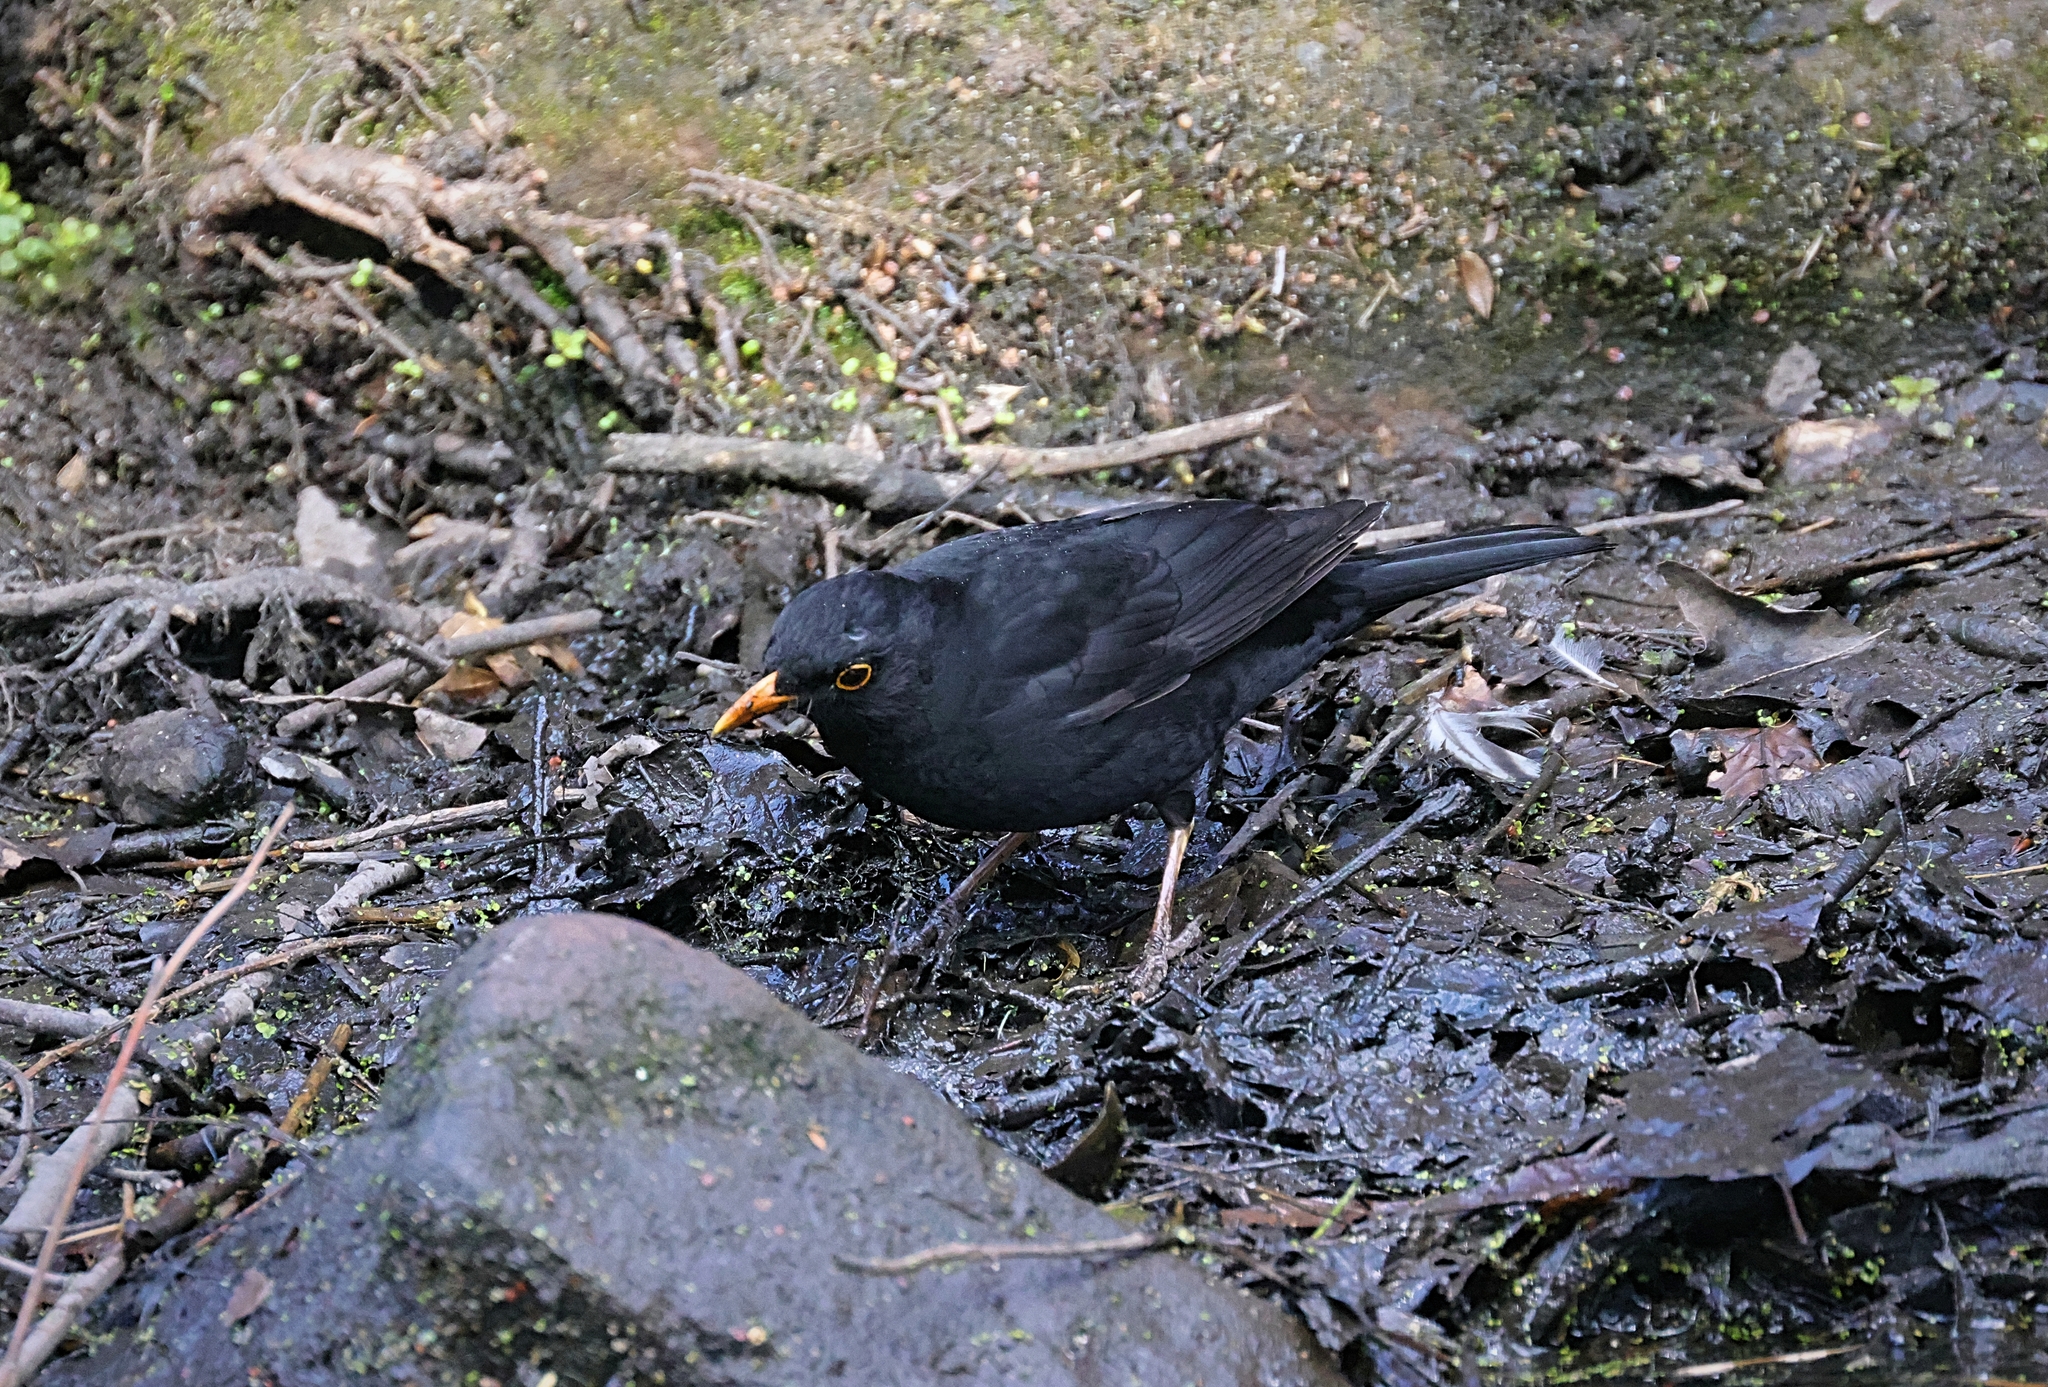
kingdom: Animalia
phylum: Chordata
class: Aves
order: Passeriformes
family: Turdidae
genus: Turdus
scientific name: Turdus merula
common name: Common blackbird
